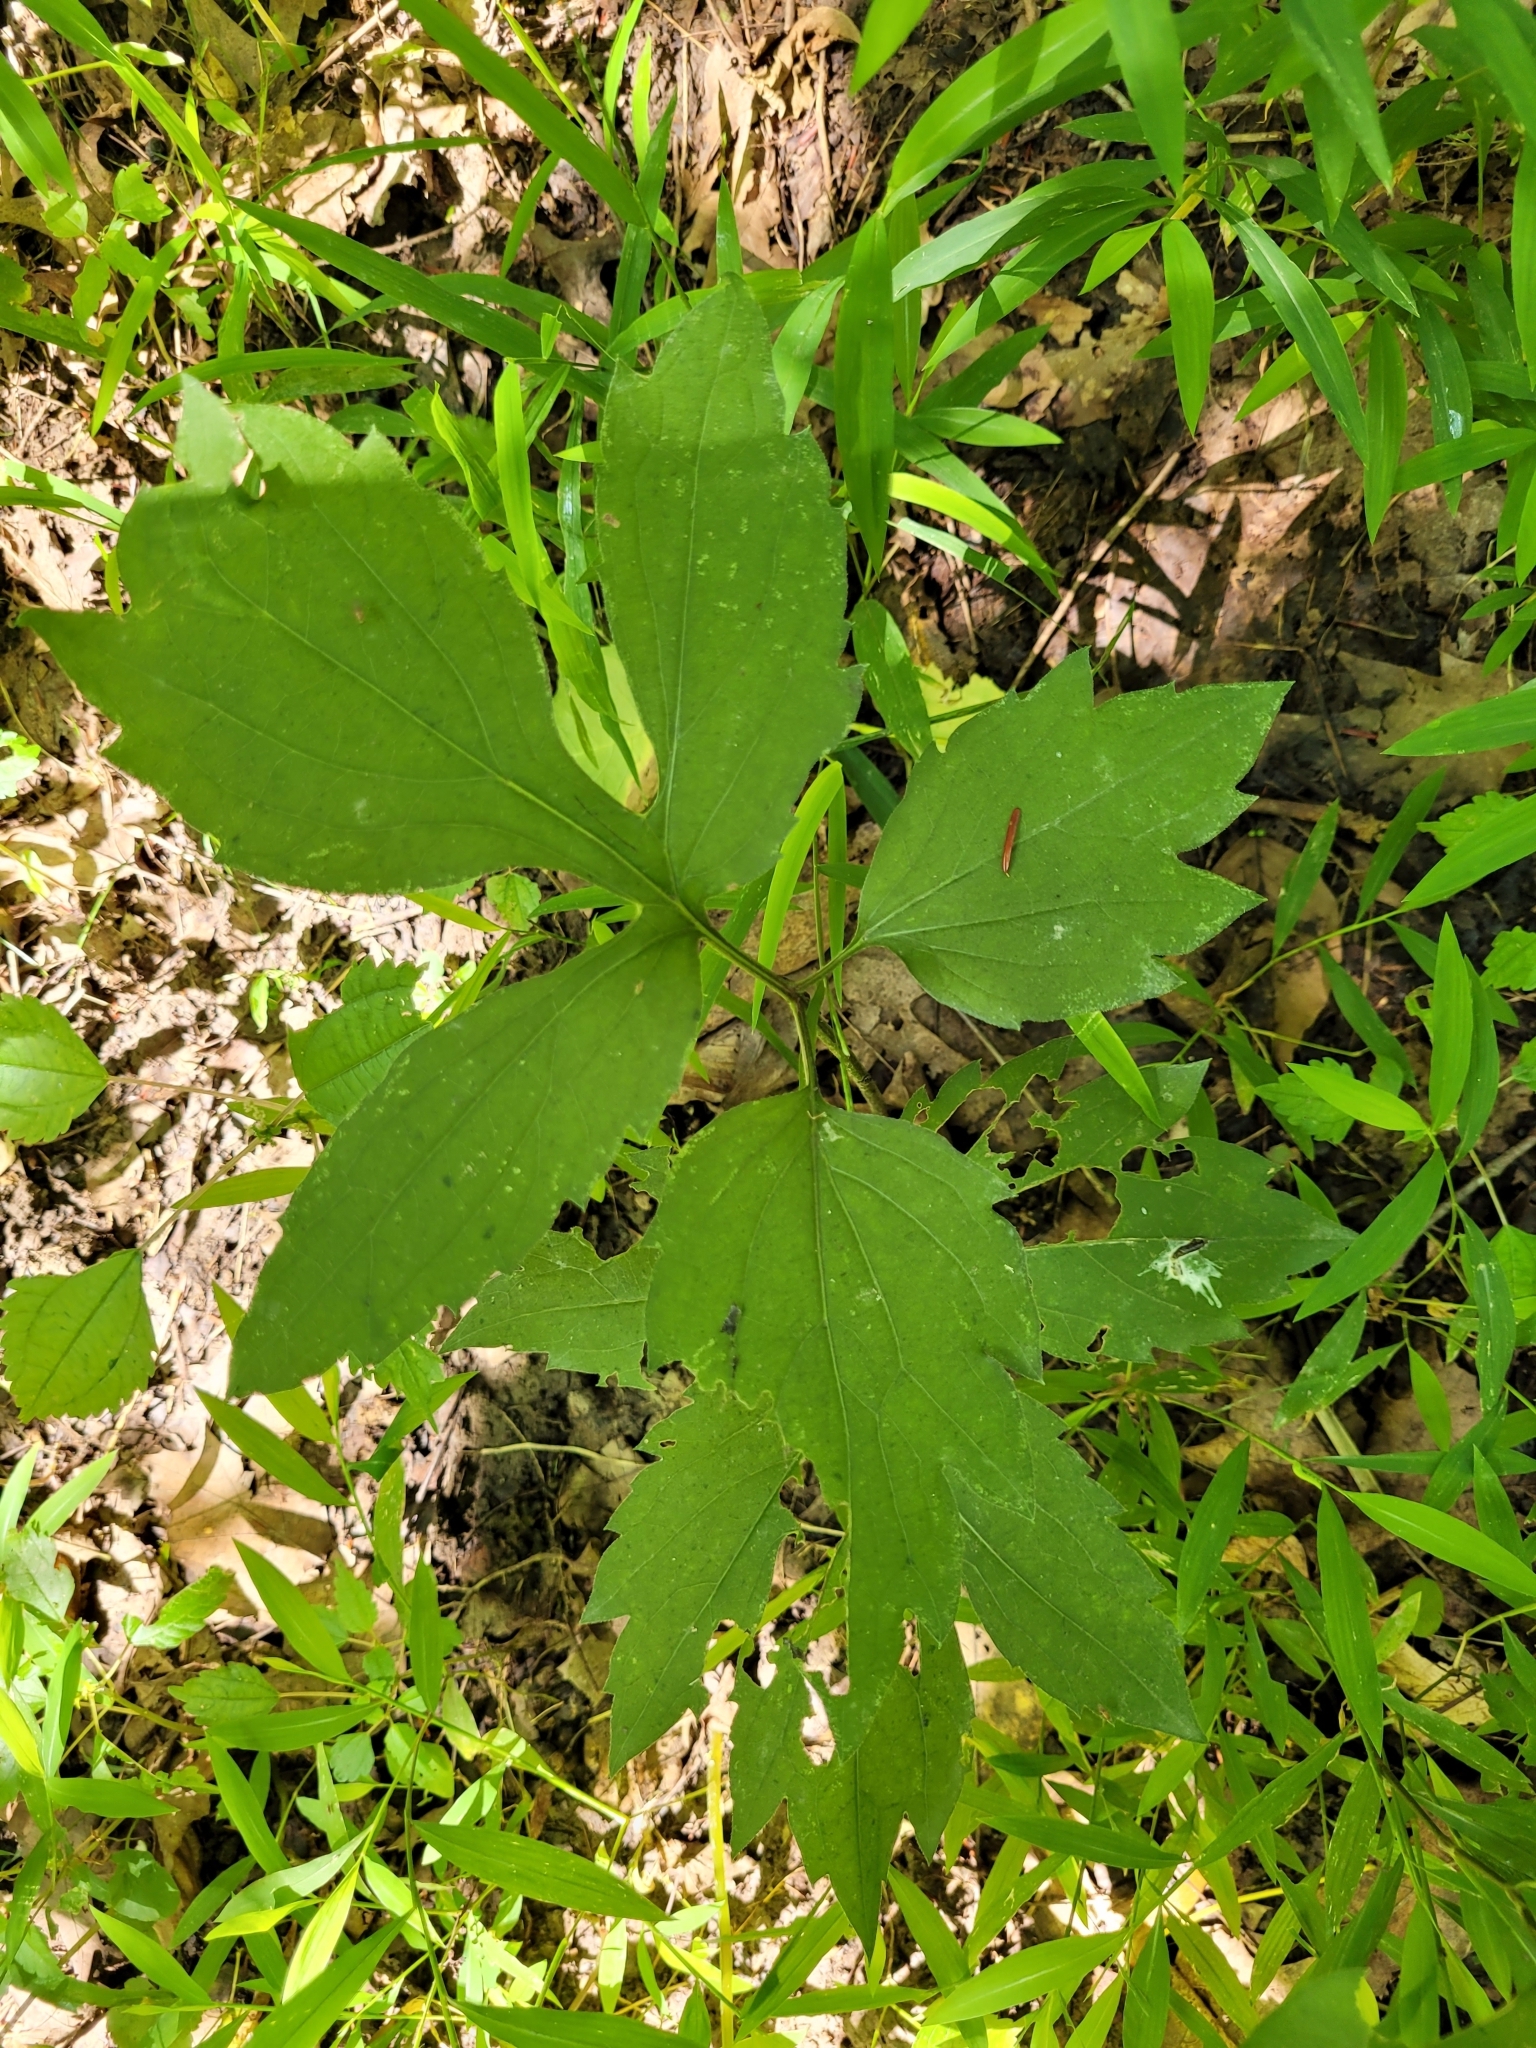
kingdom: Plantae
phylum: Tracheophyta
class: Magnoliopsida
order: Asterales
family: Asteraceae
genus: Rudbeckia
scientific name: Rudbeckia laciniata
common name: Coneflower
